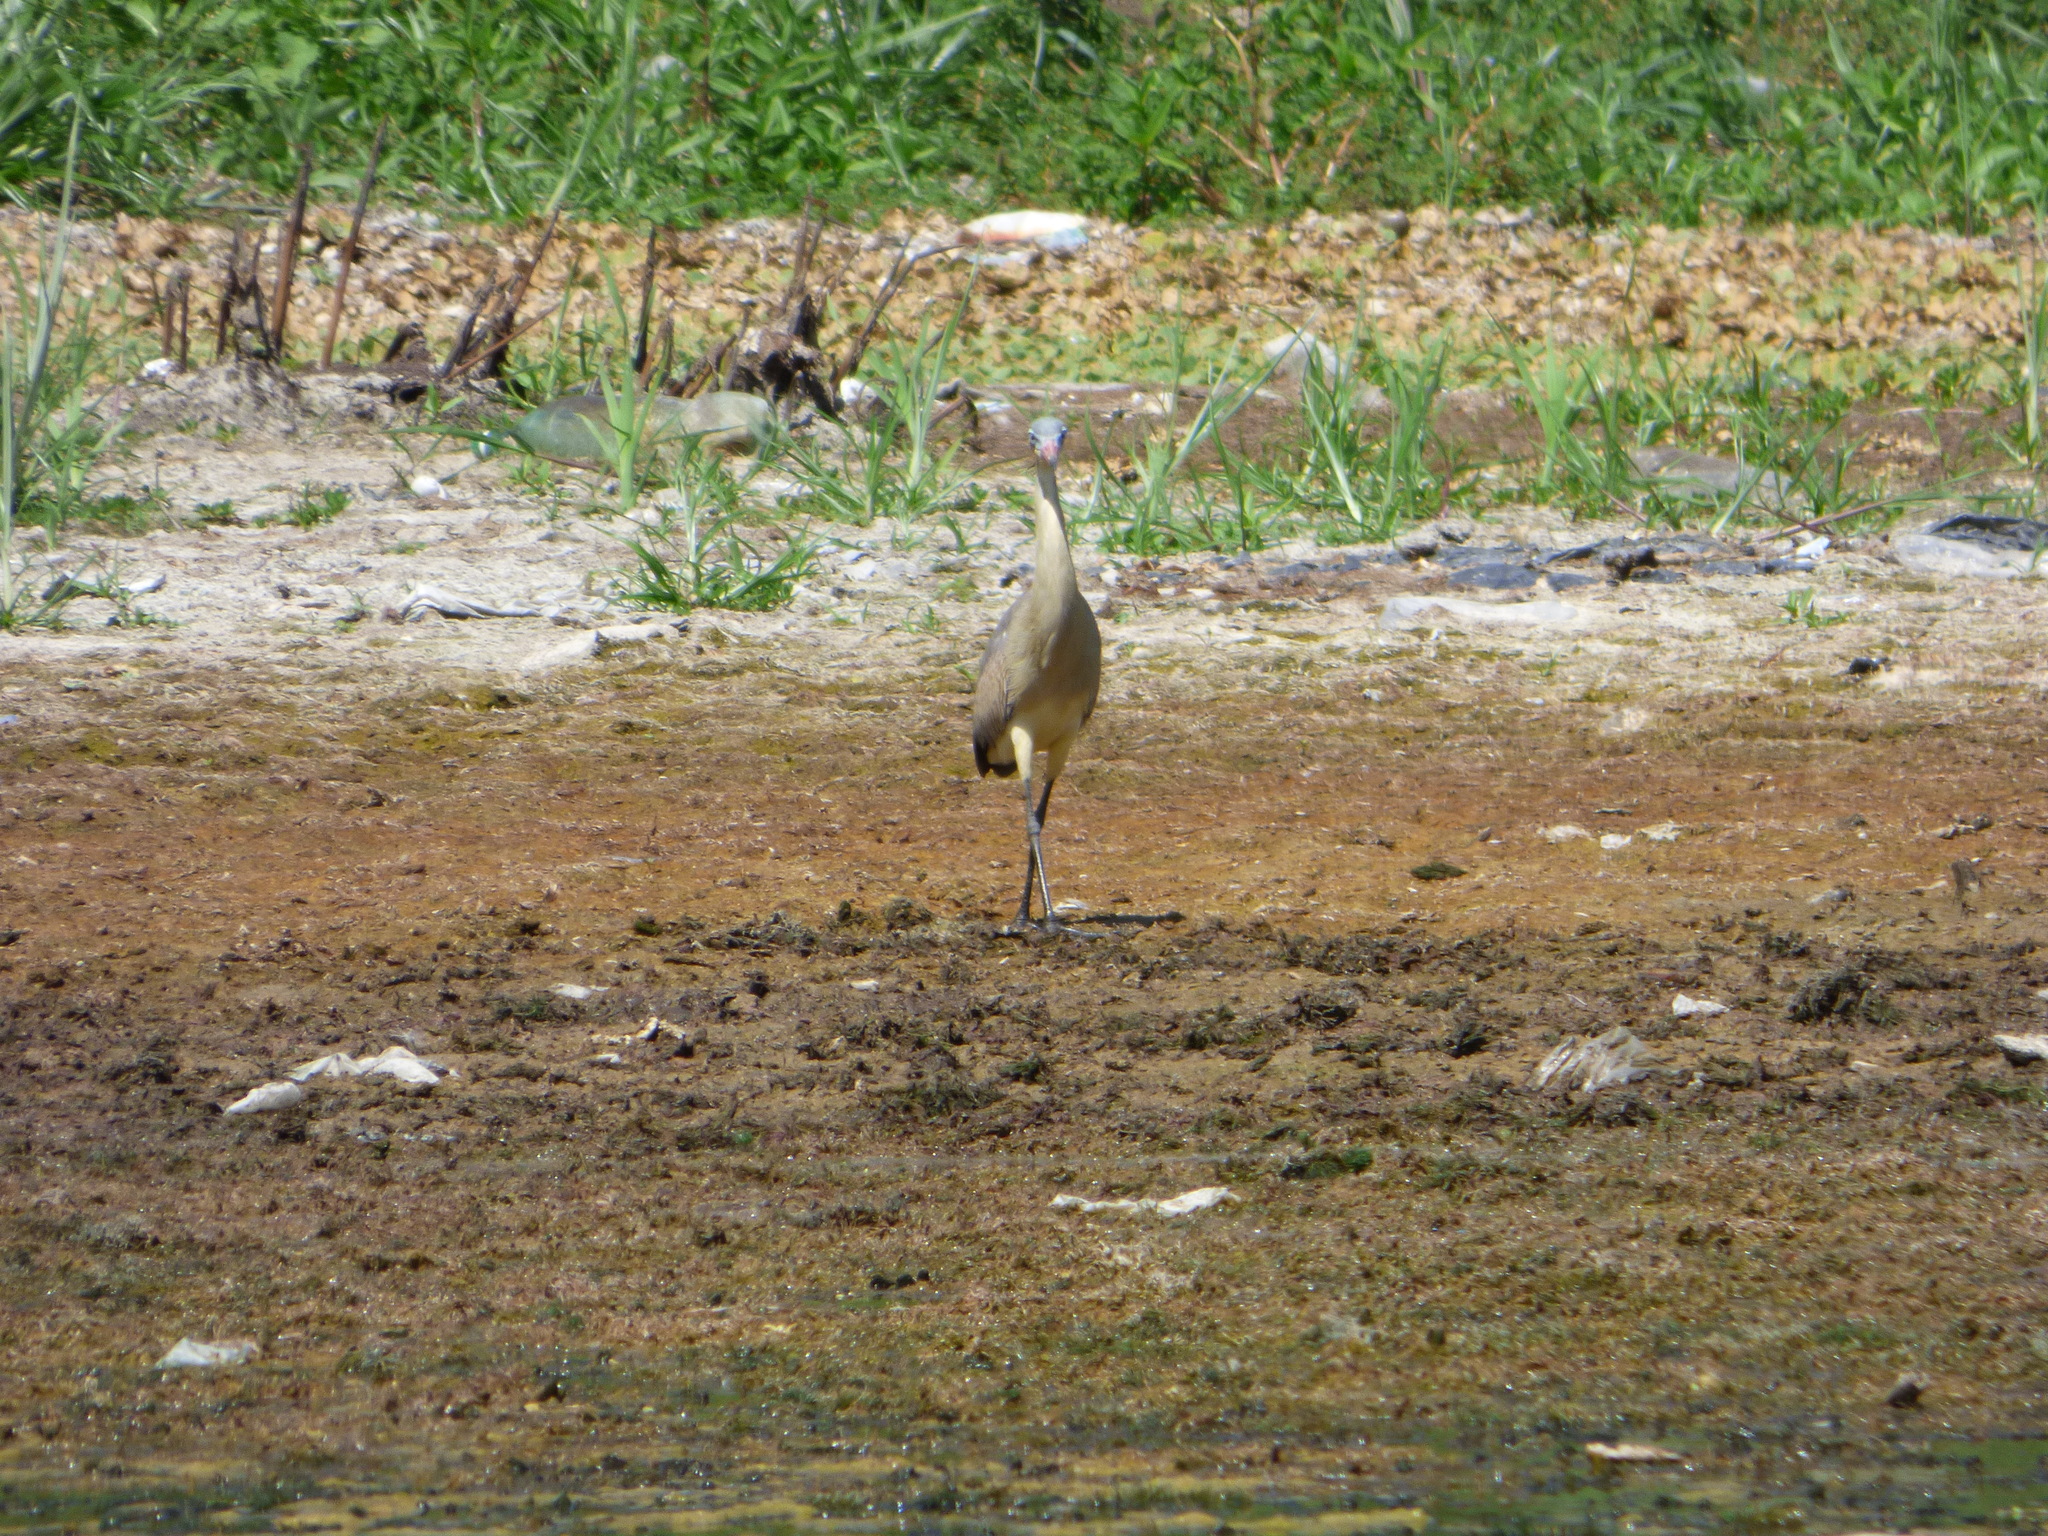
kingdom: Animalia
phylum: Chordata
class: Aves
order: Pelecaniformes
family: Ardeidae
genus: Syrigma
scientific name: Syrigma sibilatrix
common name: Whistling heron
